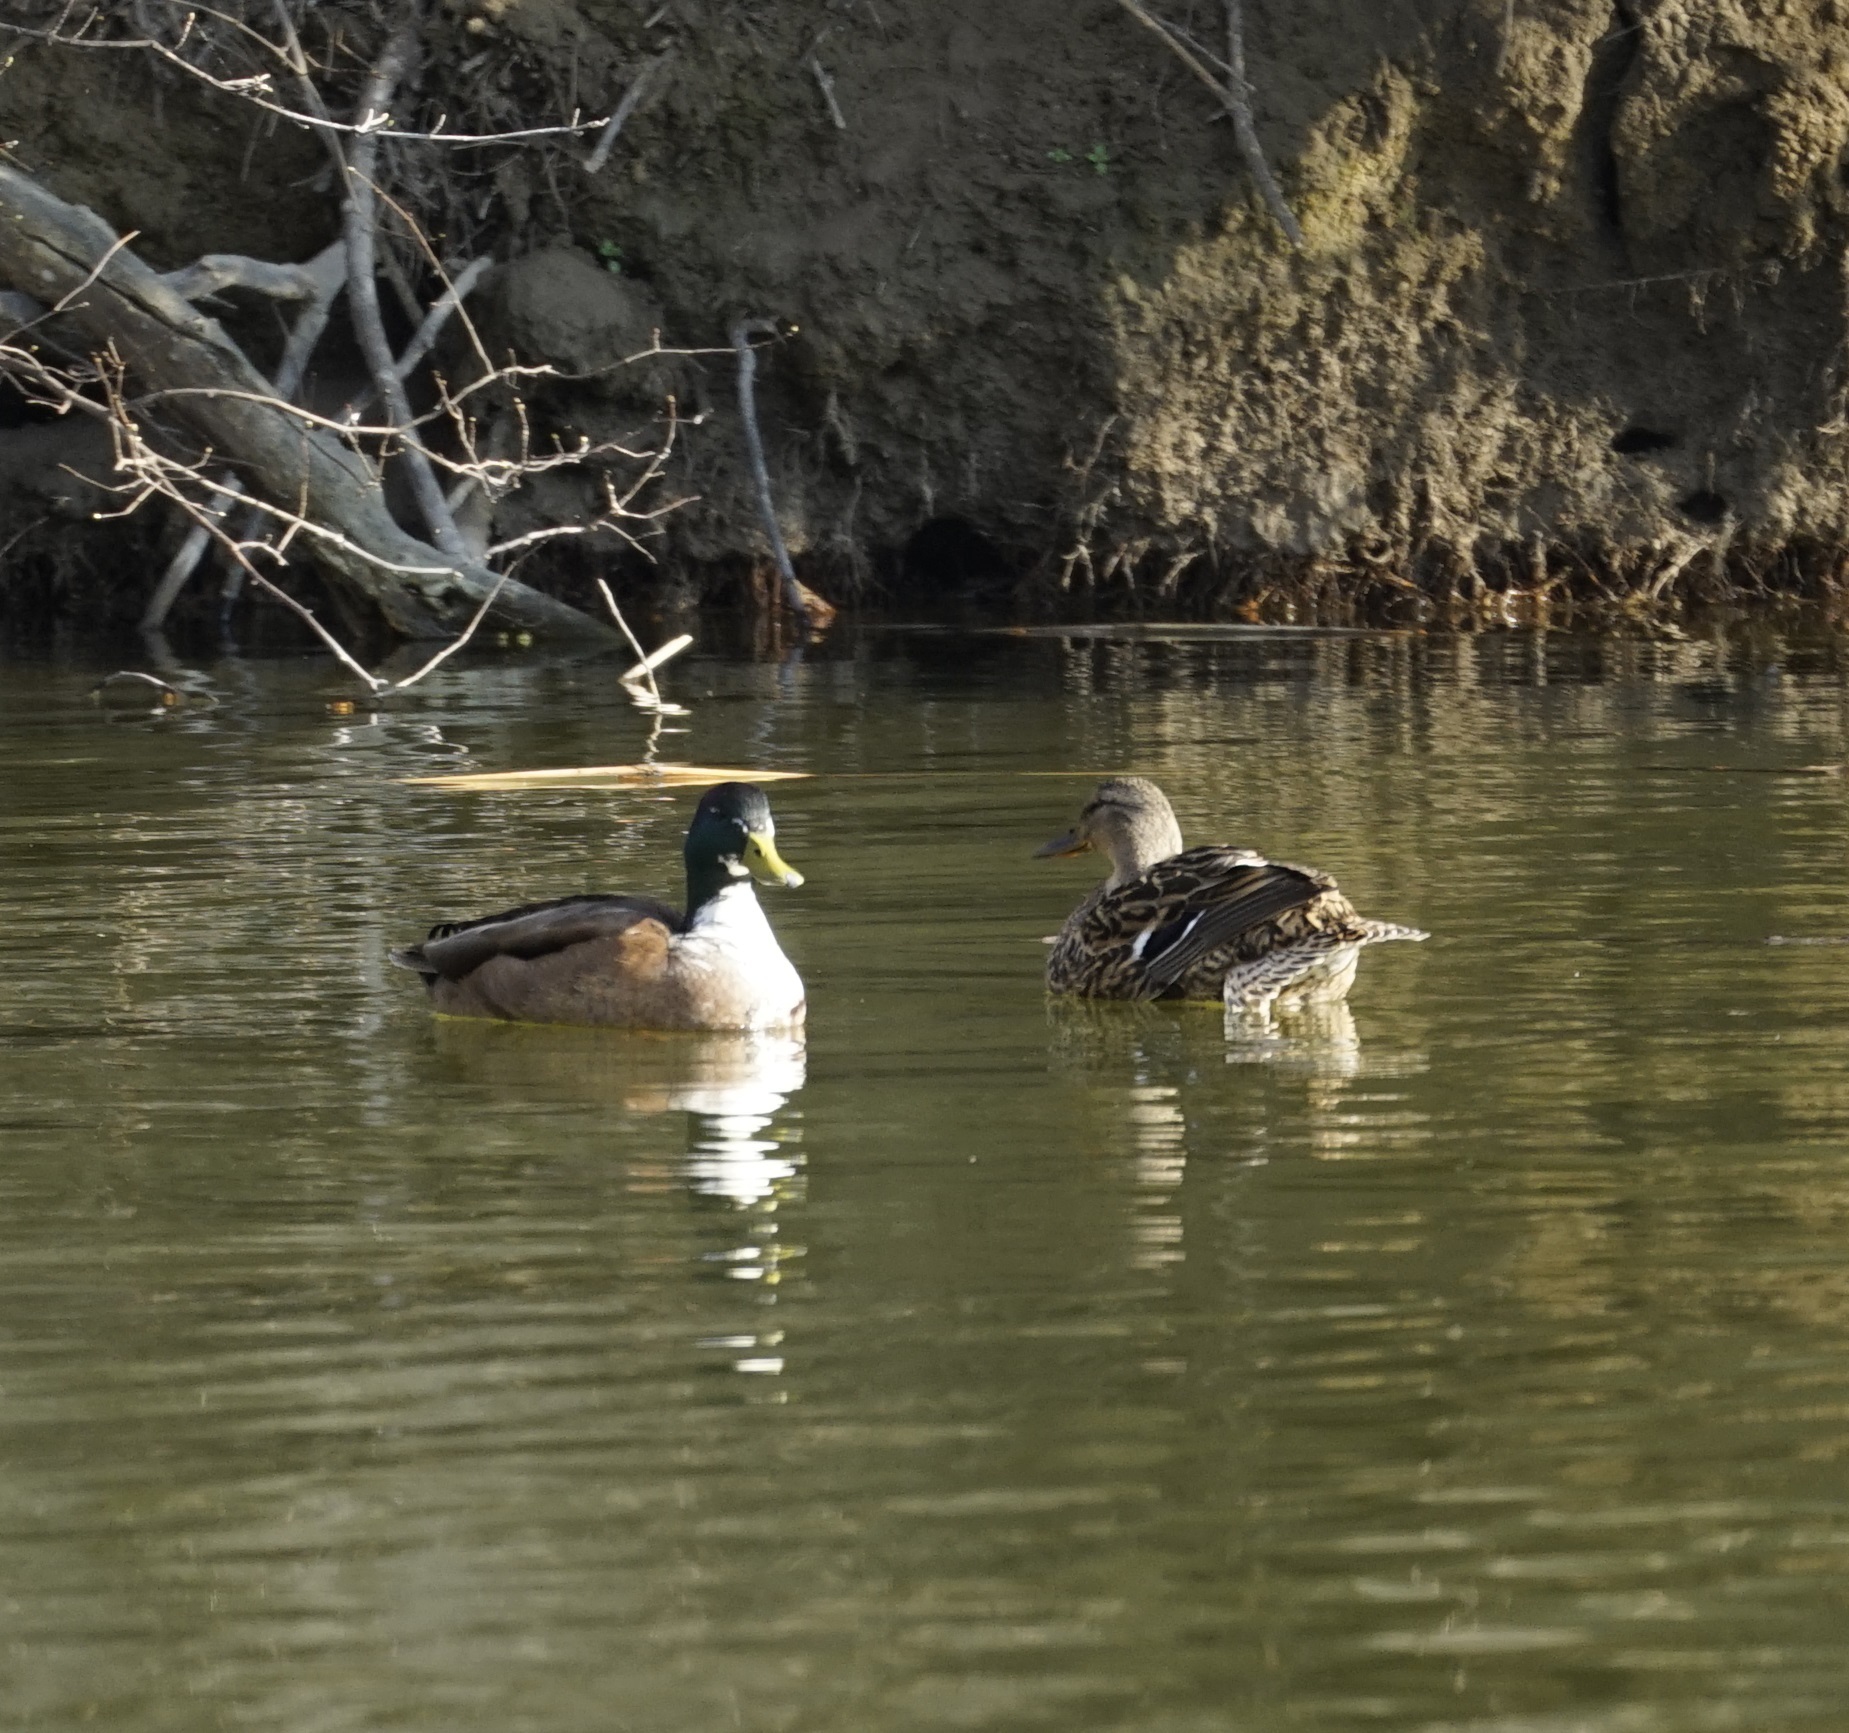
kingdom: Animalia
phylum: Chordata
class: Aves
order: Anseriformes
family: Anatidae
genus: Anas
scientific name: Anas platyrhynchos
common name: Mallard
